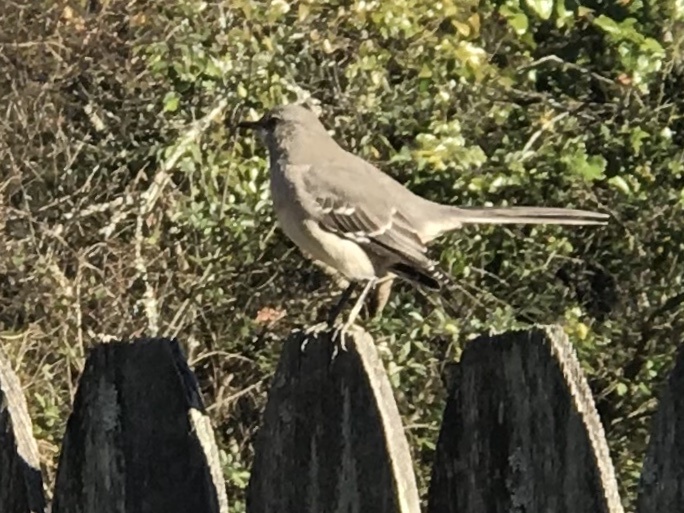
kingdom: Animalia
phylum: Chordata
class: Aves
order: Passeriformes
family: Mimidae
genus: Mimus
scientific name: Mimus polyglottos
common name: Northern mockingbird
